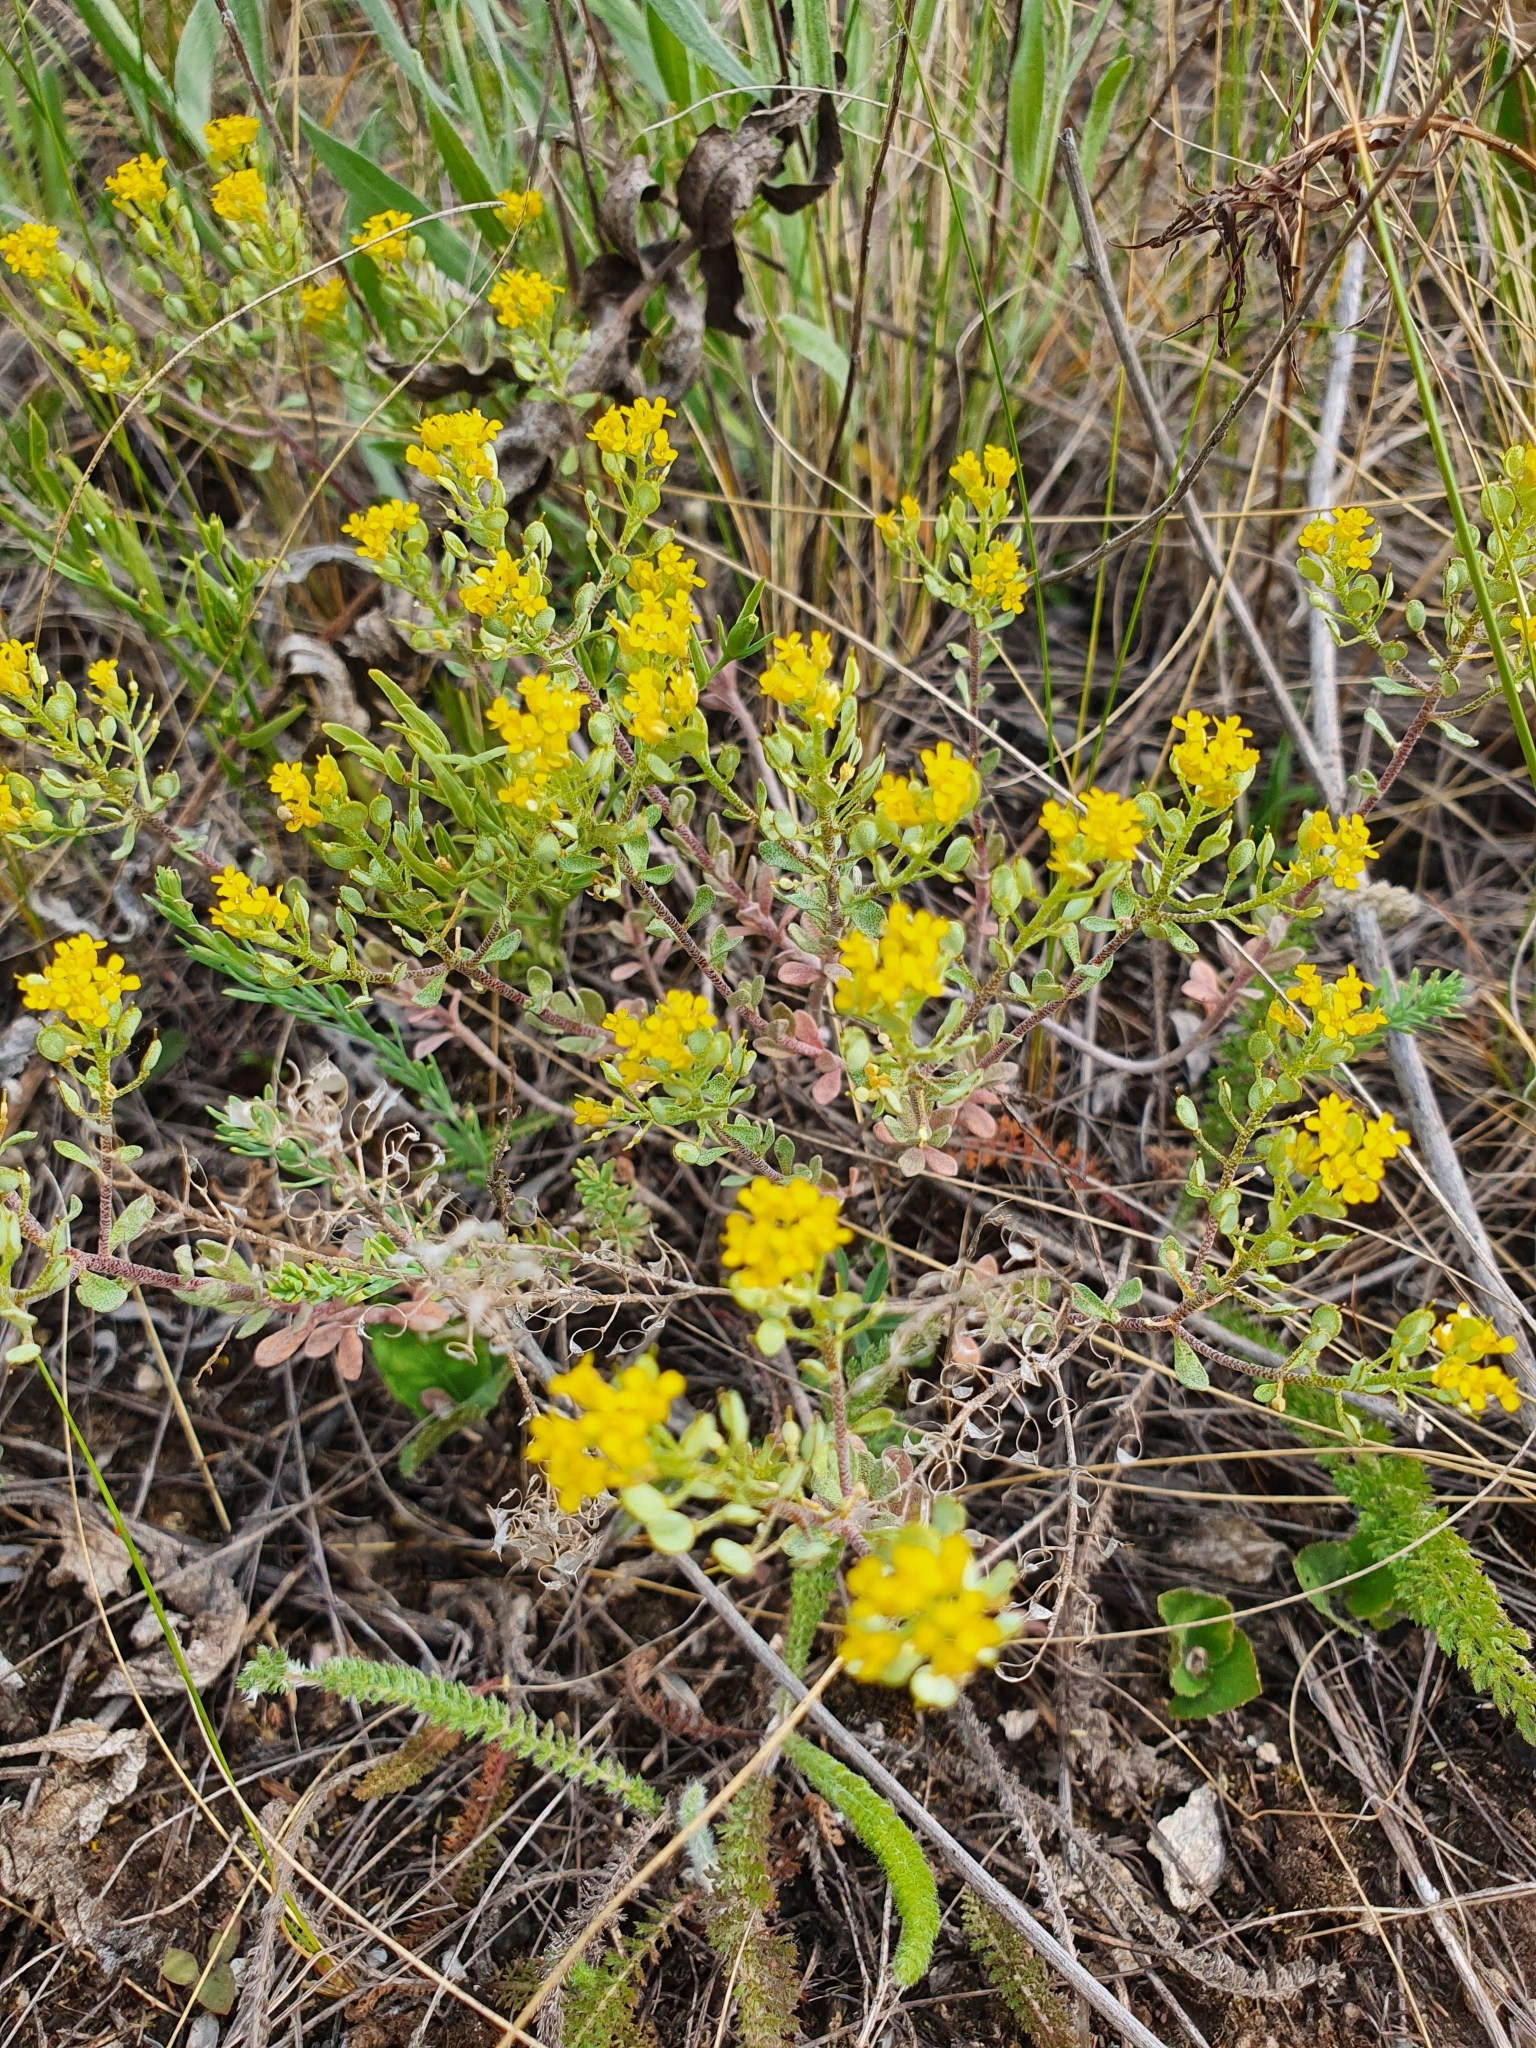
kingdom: Plantae
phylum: Tracheophyta
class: Magnoliopsida
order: Brassicales
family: Brassicaceae
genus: Odontarrhena
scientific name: Odontarrhena tortuosa
